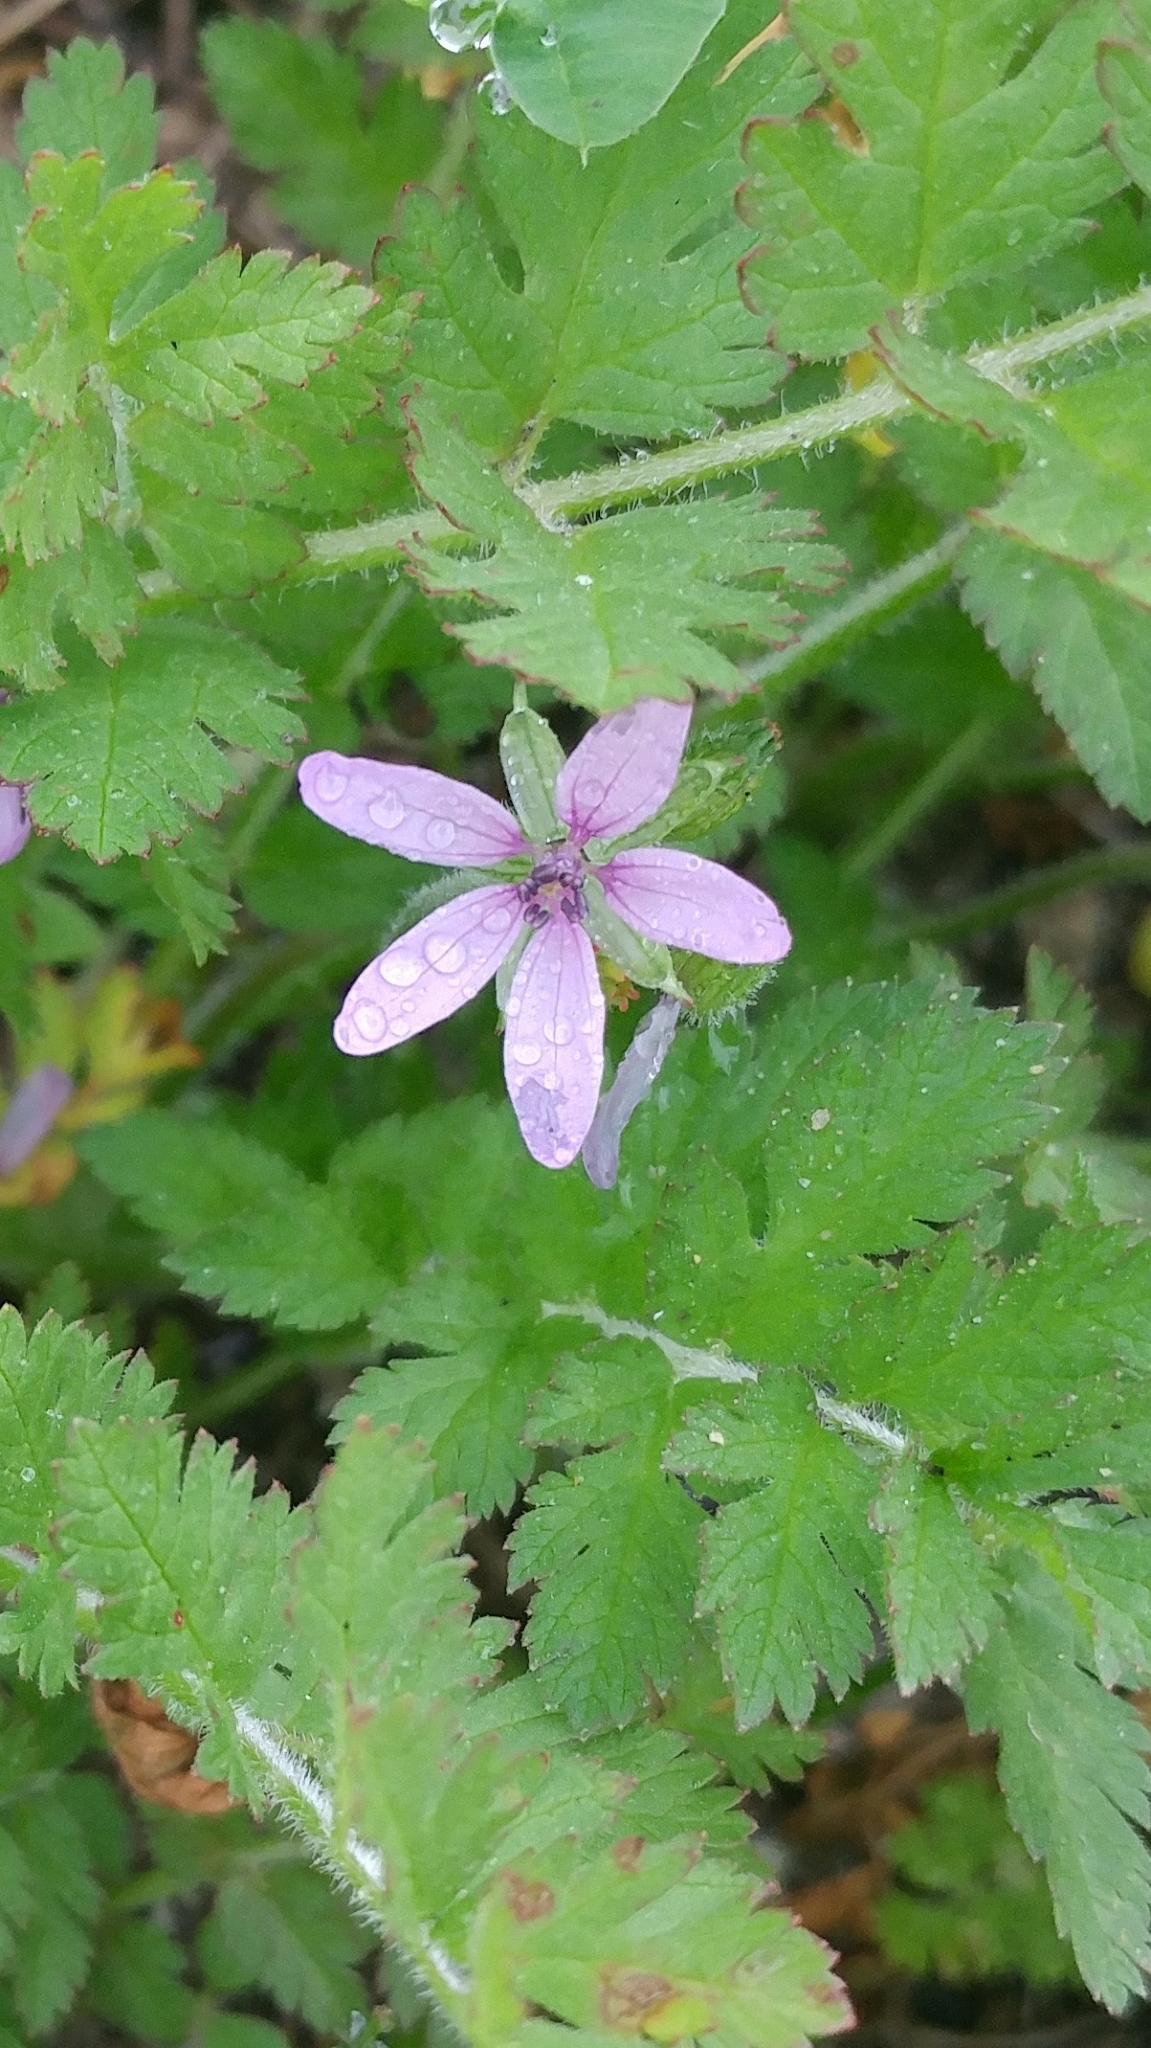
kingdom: Plantae
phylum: Tracheophyta
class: Magnoliopsida
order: Geraniales
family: Geraniaceae
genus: Erodium
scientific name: Erodium moschatum
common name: Musk stork's-bill
